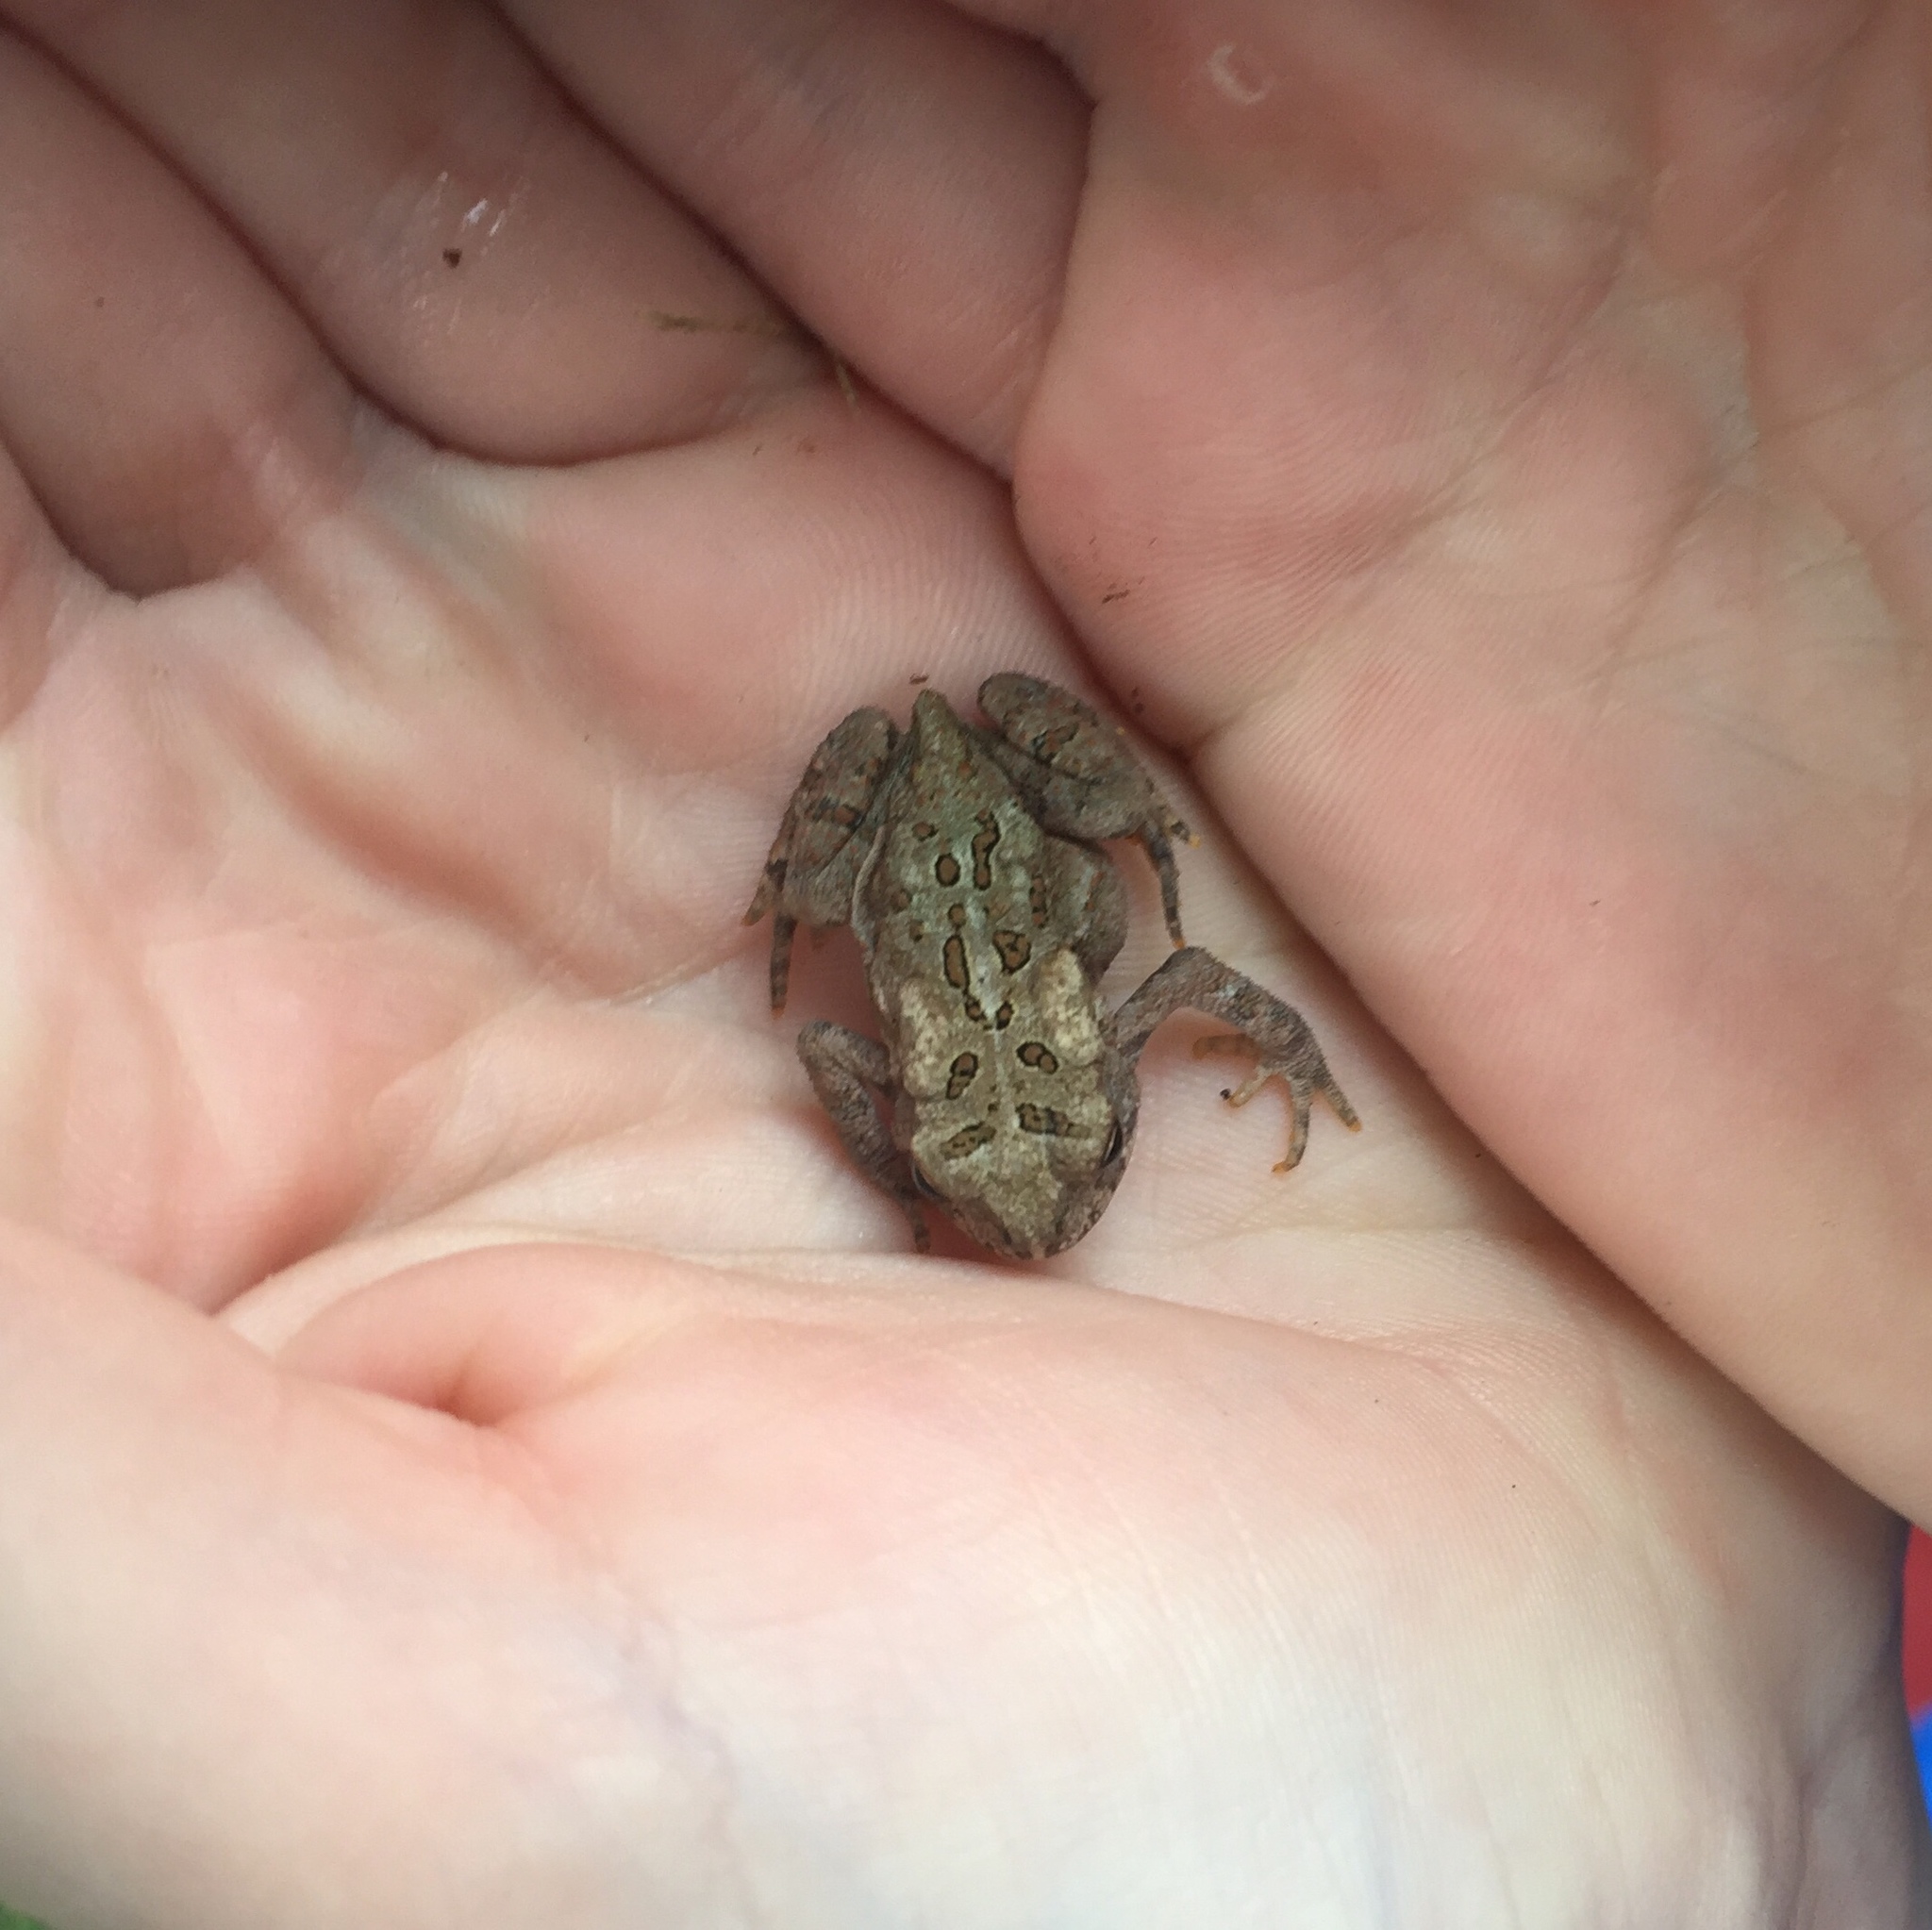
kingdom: Animalia
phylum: Chordata
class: Amphibia
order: Anura
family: Bufonidae
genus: Anaxyrus
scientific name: Anaxyrus americanus
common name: American toad
